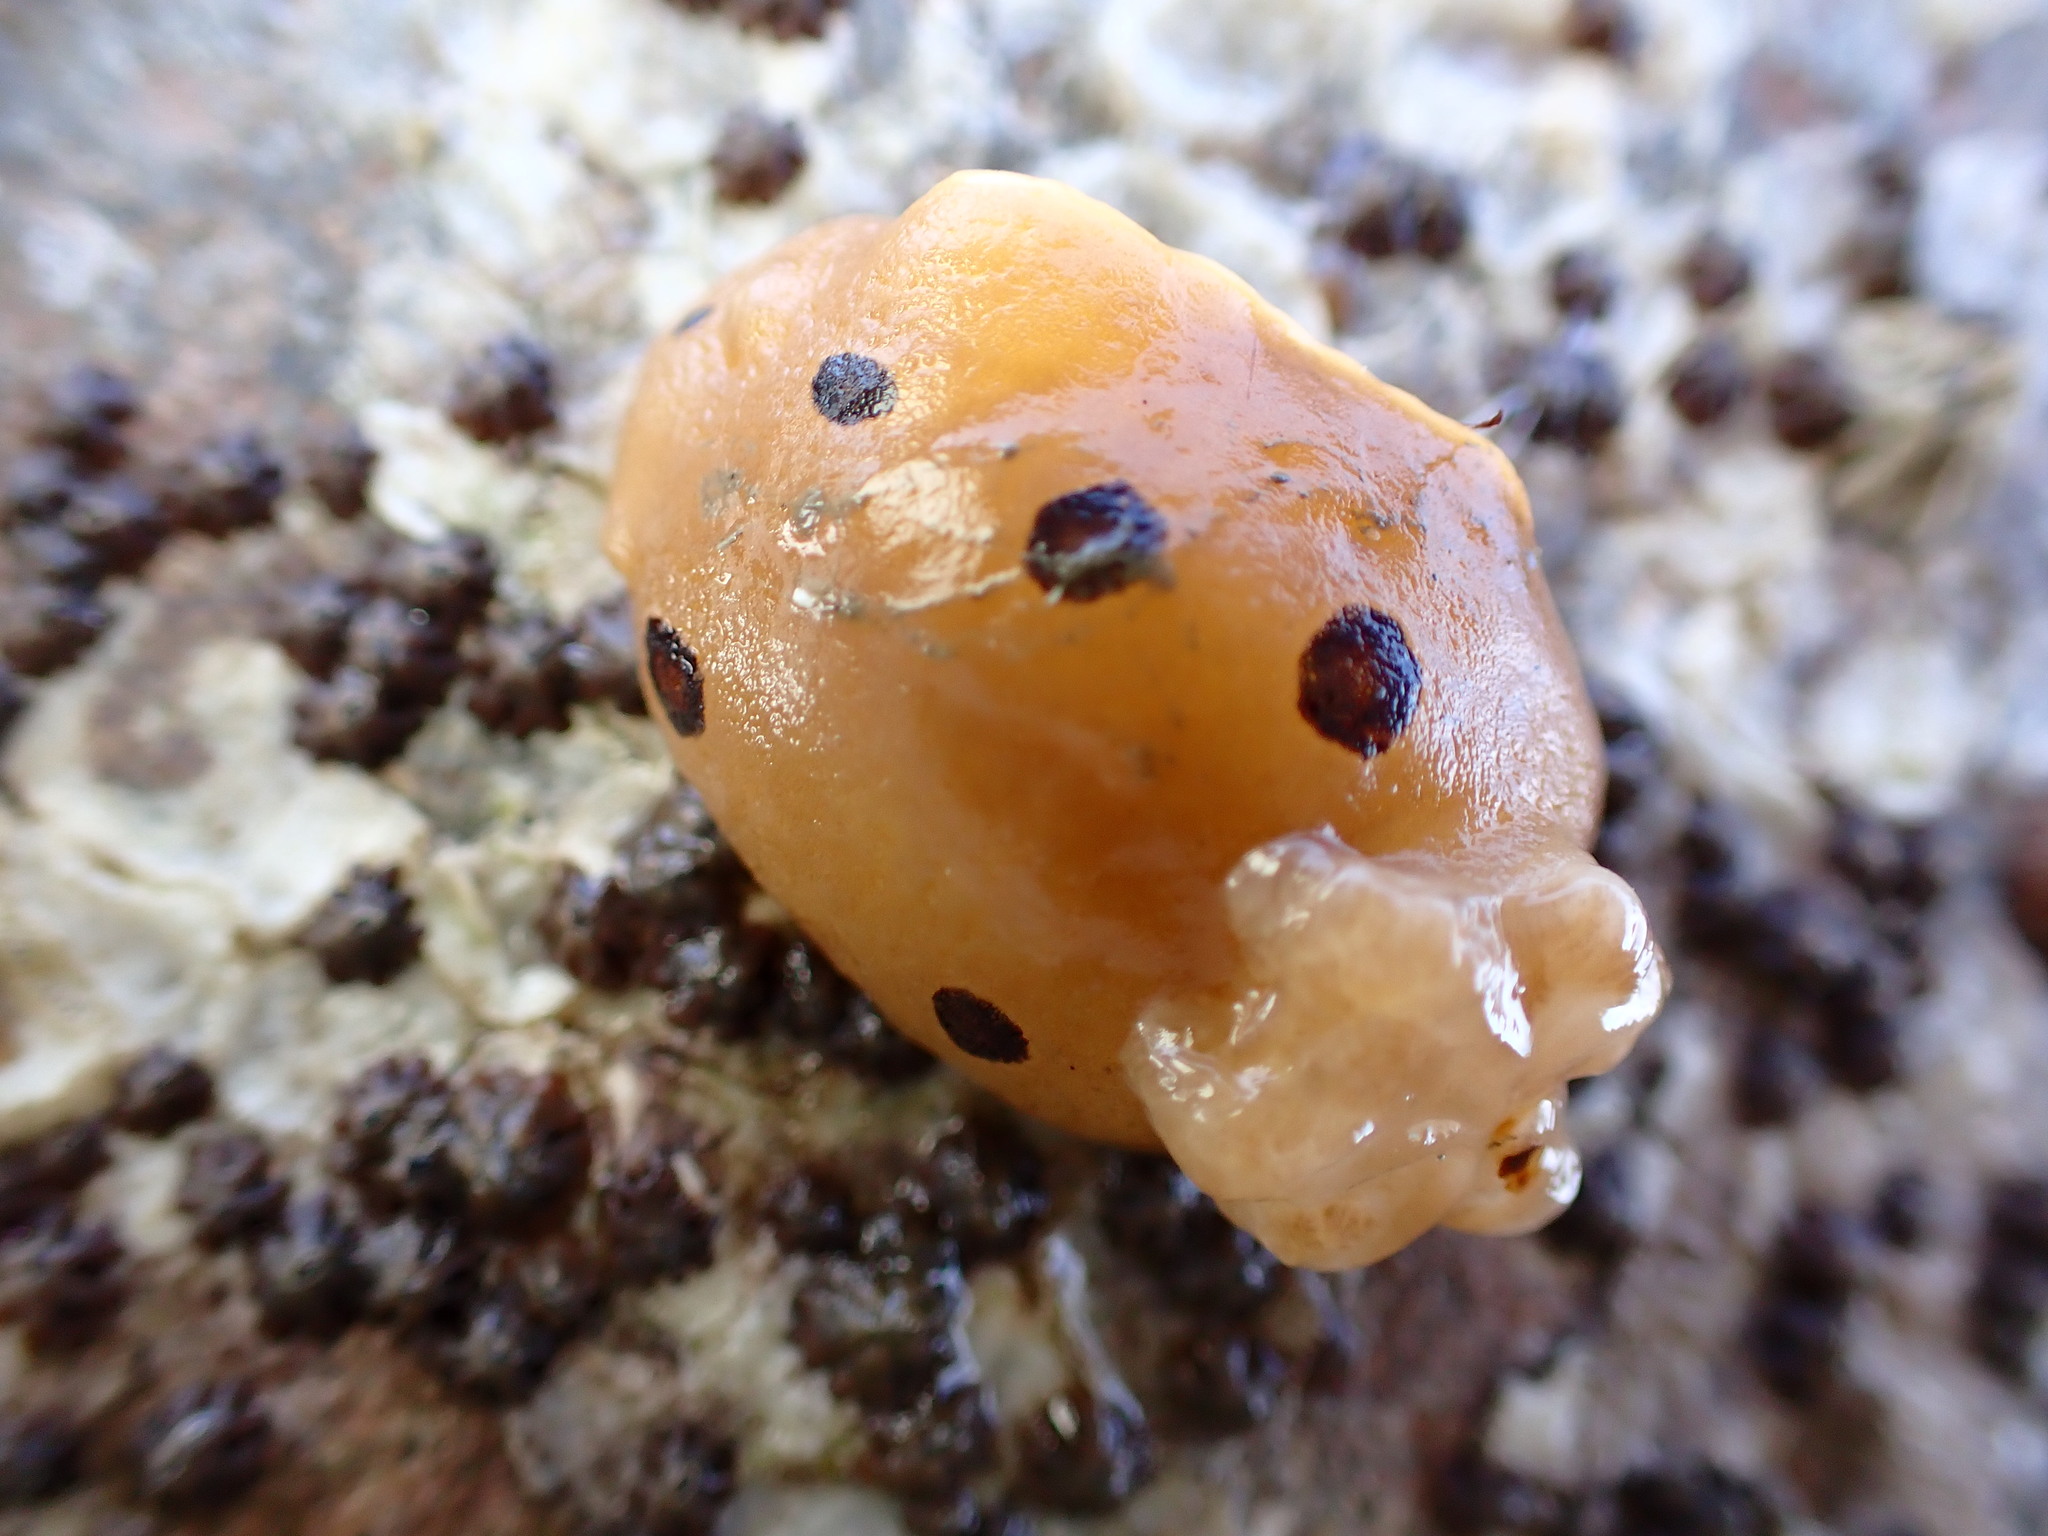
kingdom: Animalia
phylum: Mollusca
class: Gastropoda
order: Nudibranchia
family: Discodorididae
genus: Diaulula
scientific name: Diaulula sandiegensis
